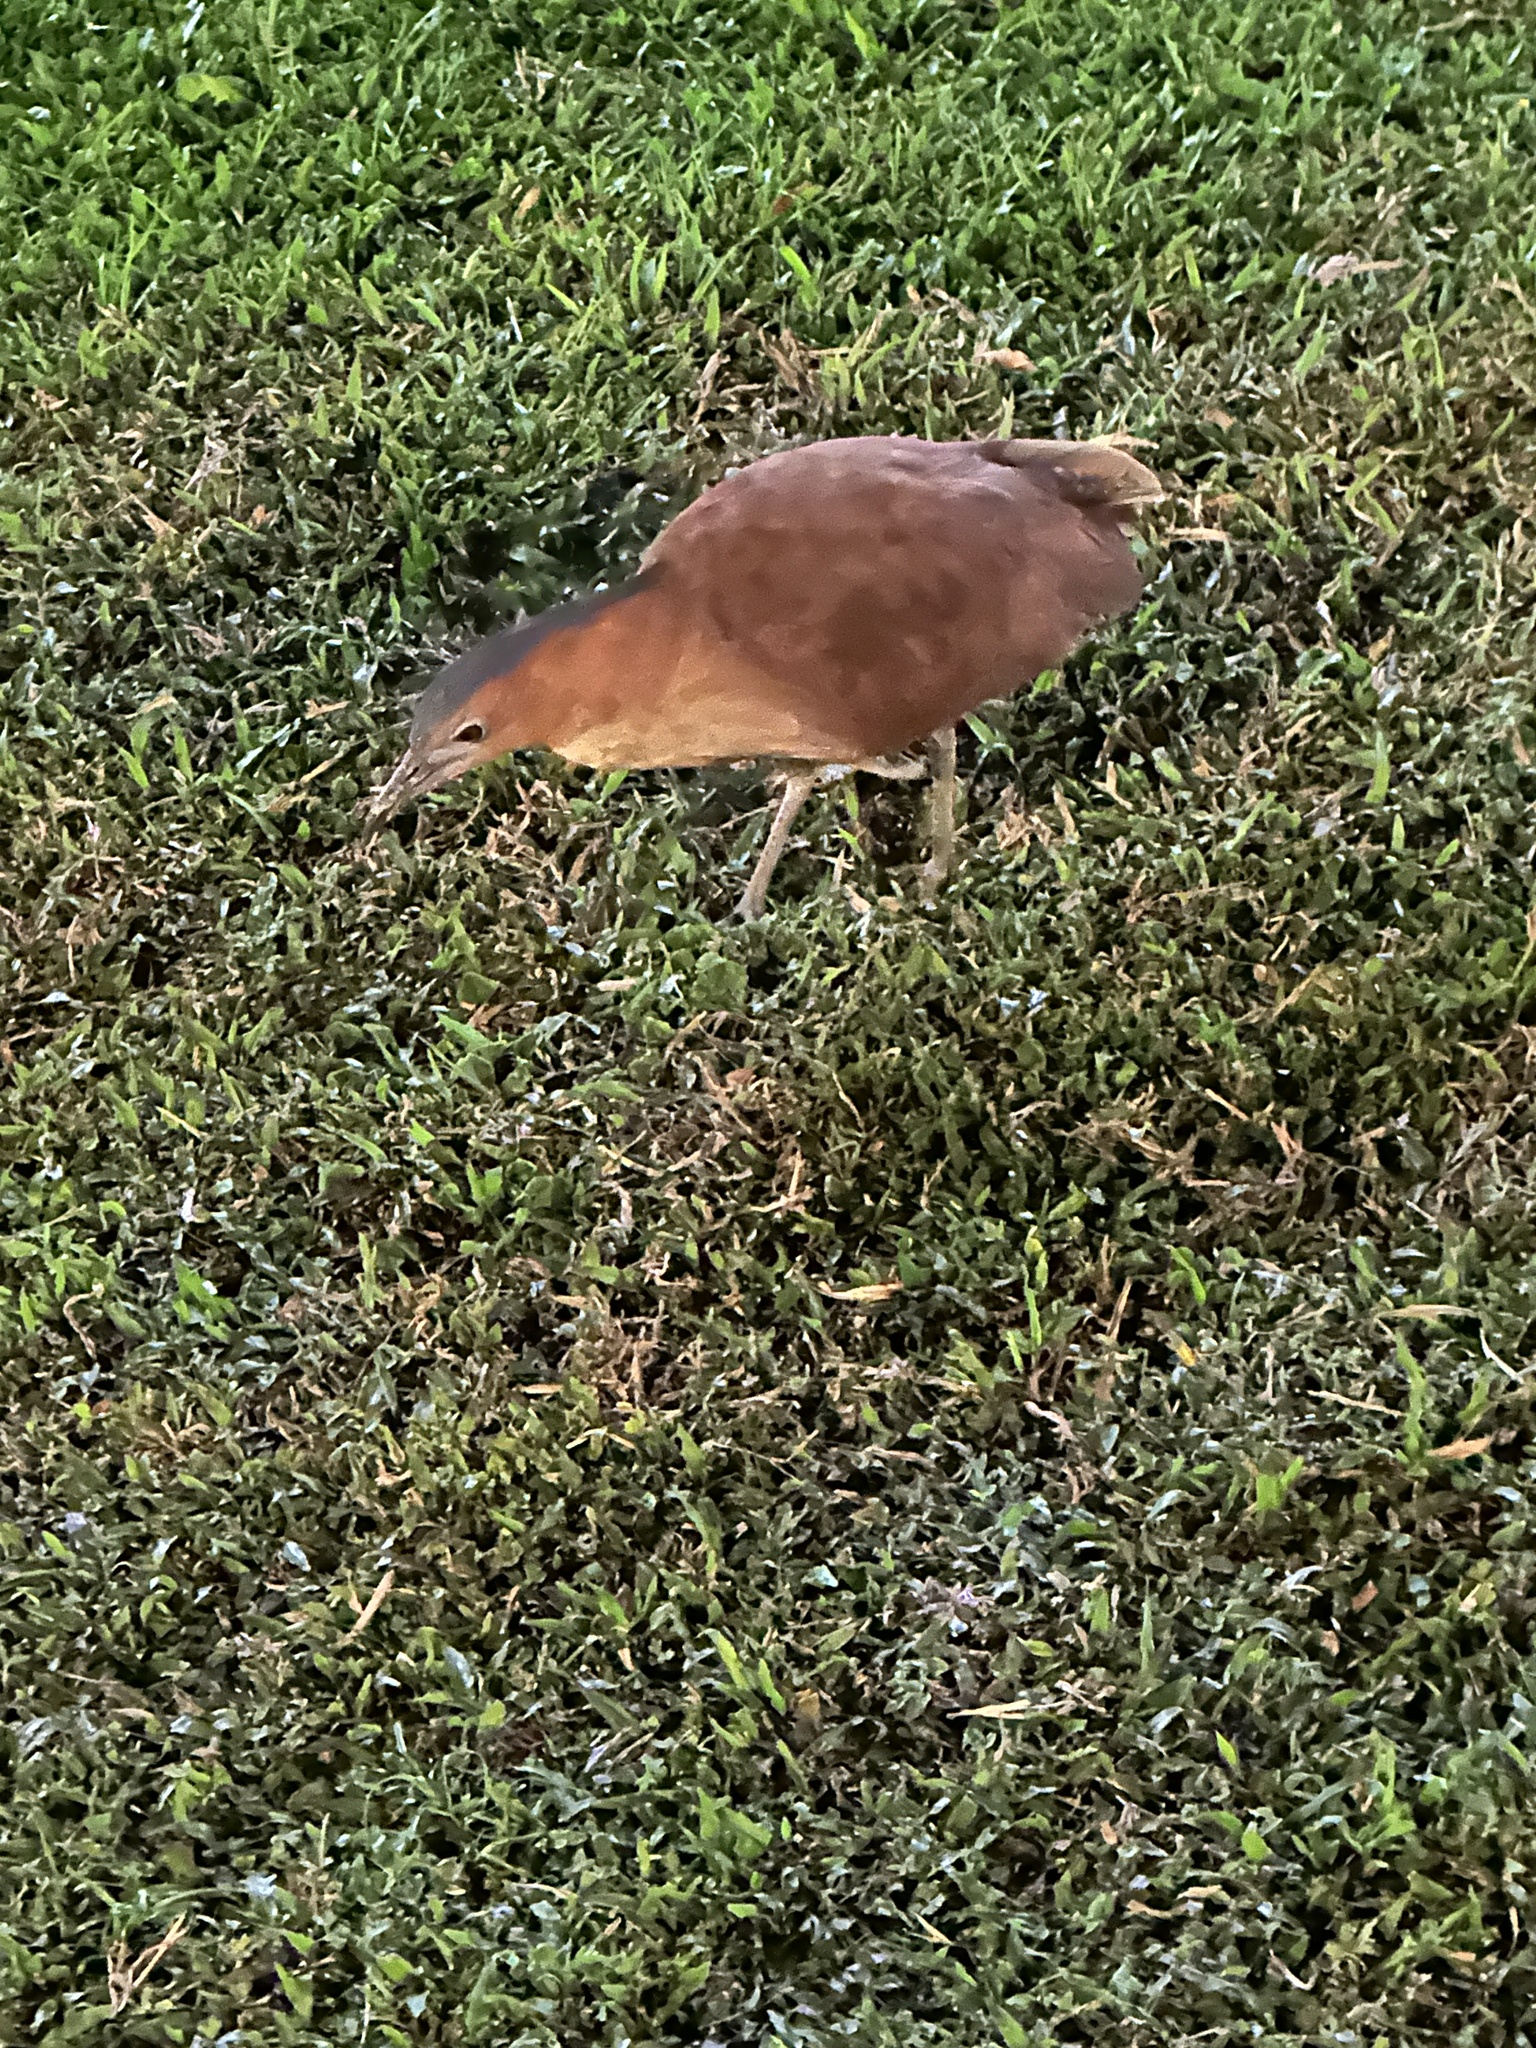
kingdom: Animalia
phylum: Chordata
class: Aves
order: Pelecaniformes
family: Ardeidae
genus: Gorsachius
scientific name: Gorsachius melanolophus
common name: Malayan night heron
